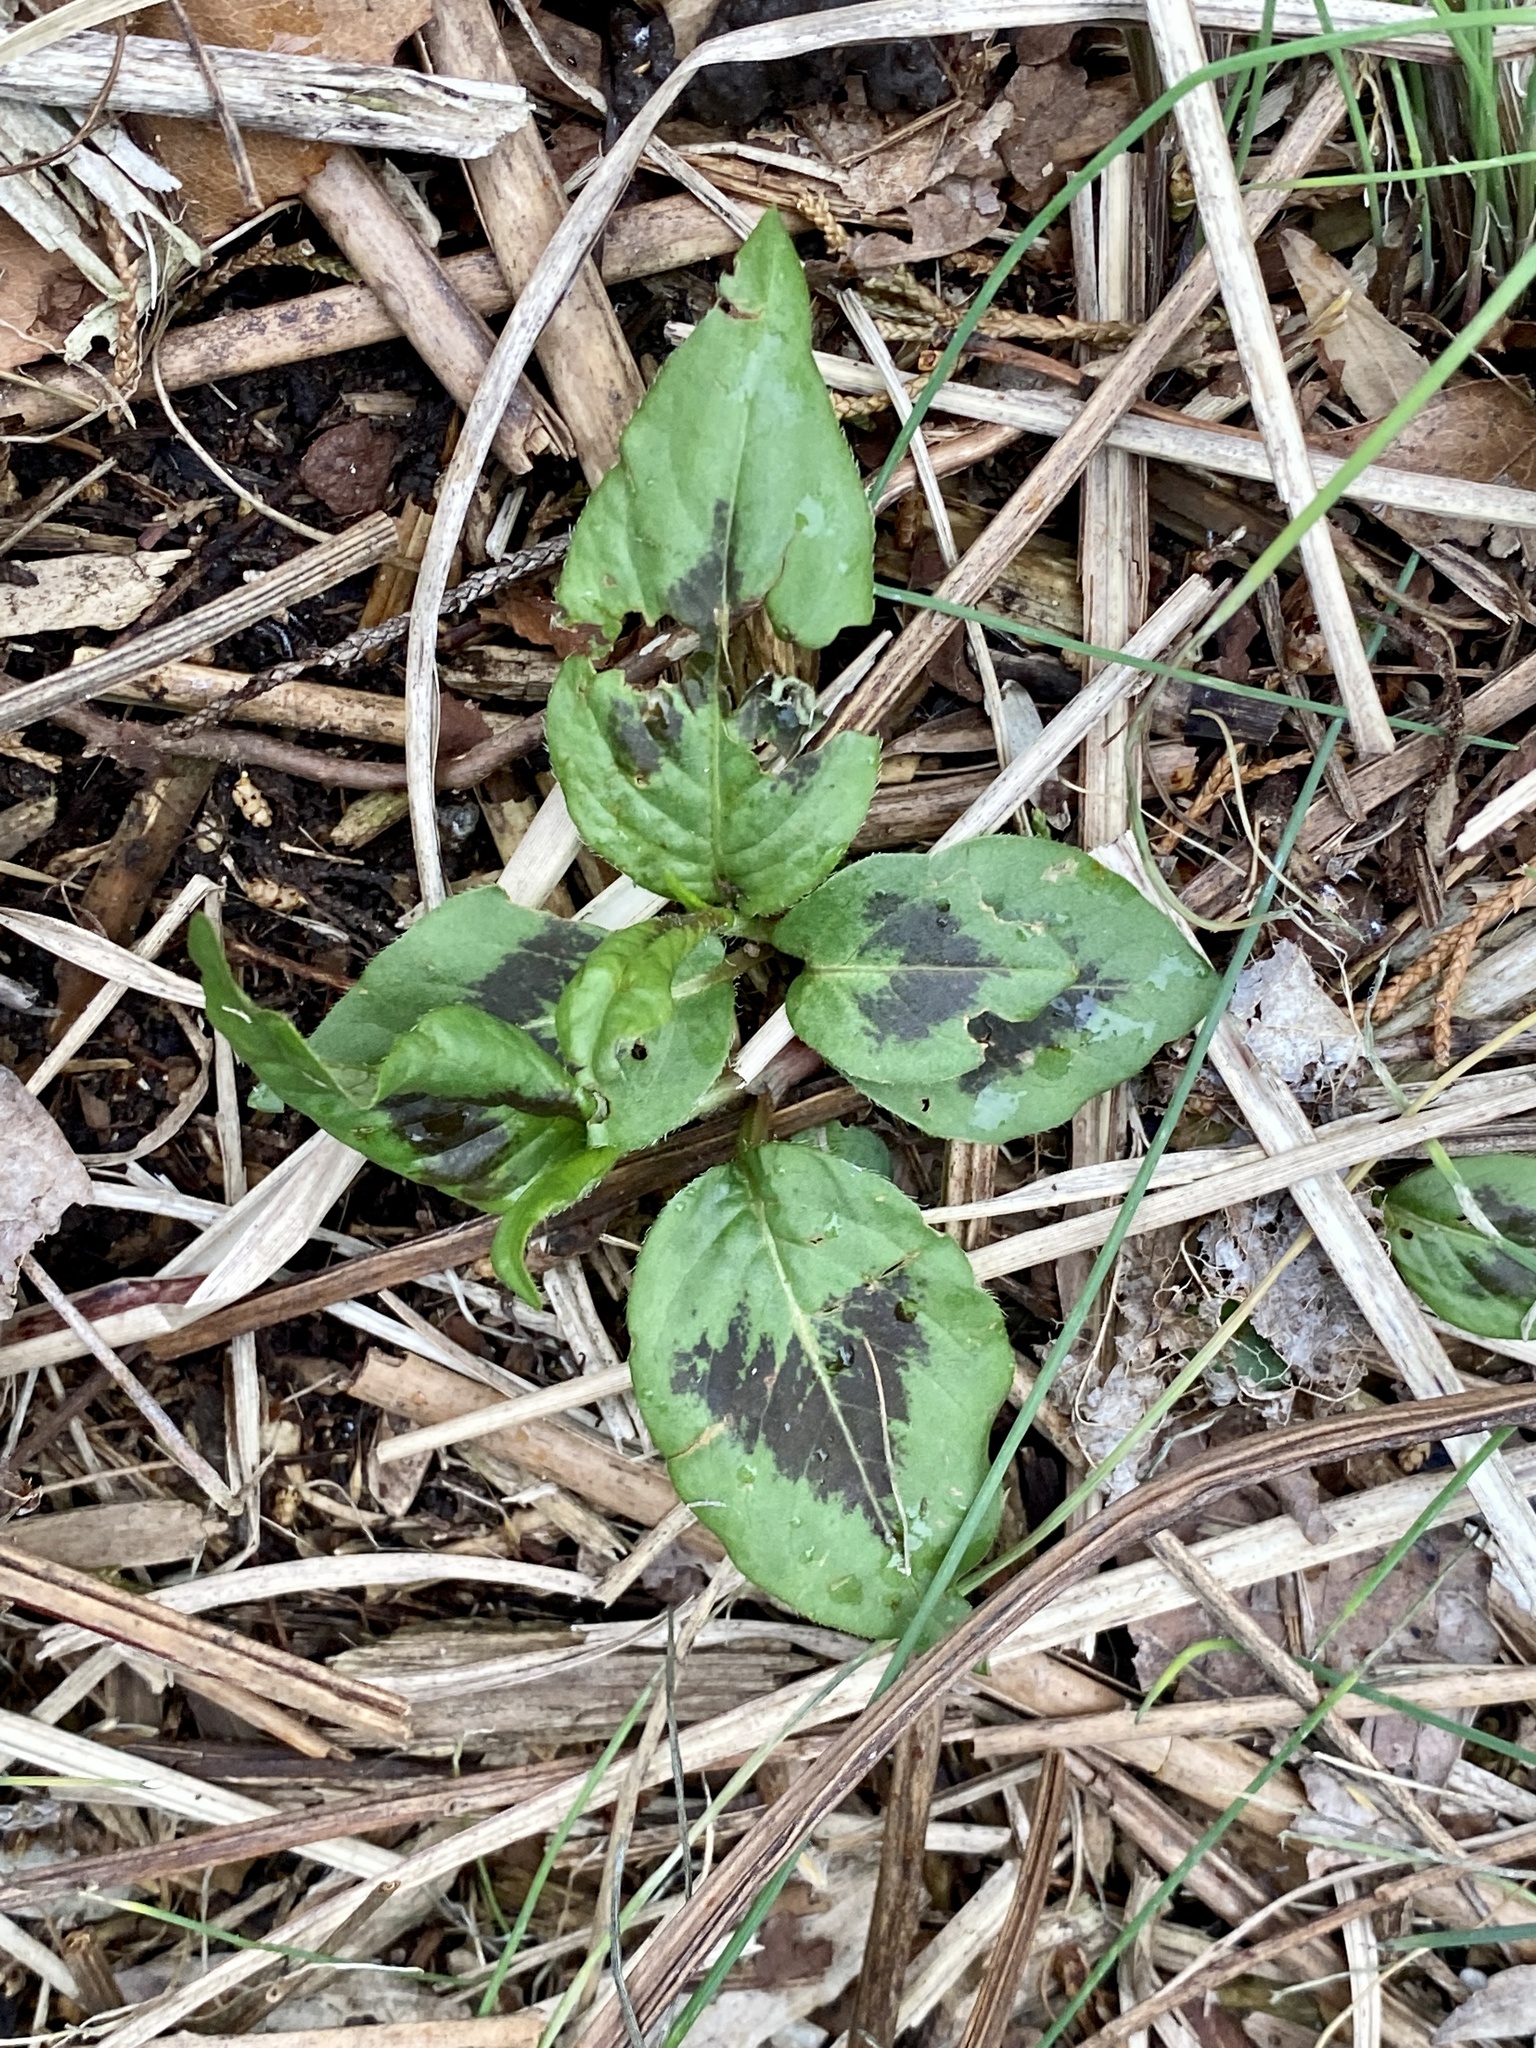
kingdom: Plantae
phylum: Tracheophyta
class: Magnoliopsida
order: Caryophyllales
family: Polygonaceae
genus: Persicaria
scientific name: Persicaria virginiana
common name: Jumpseed
